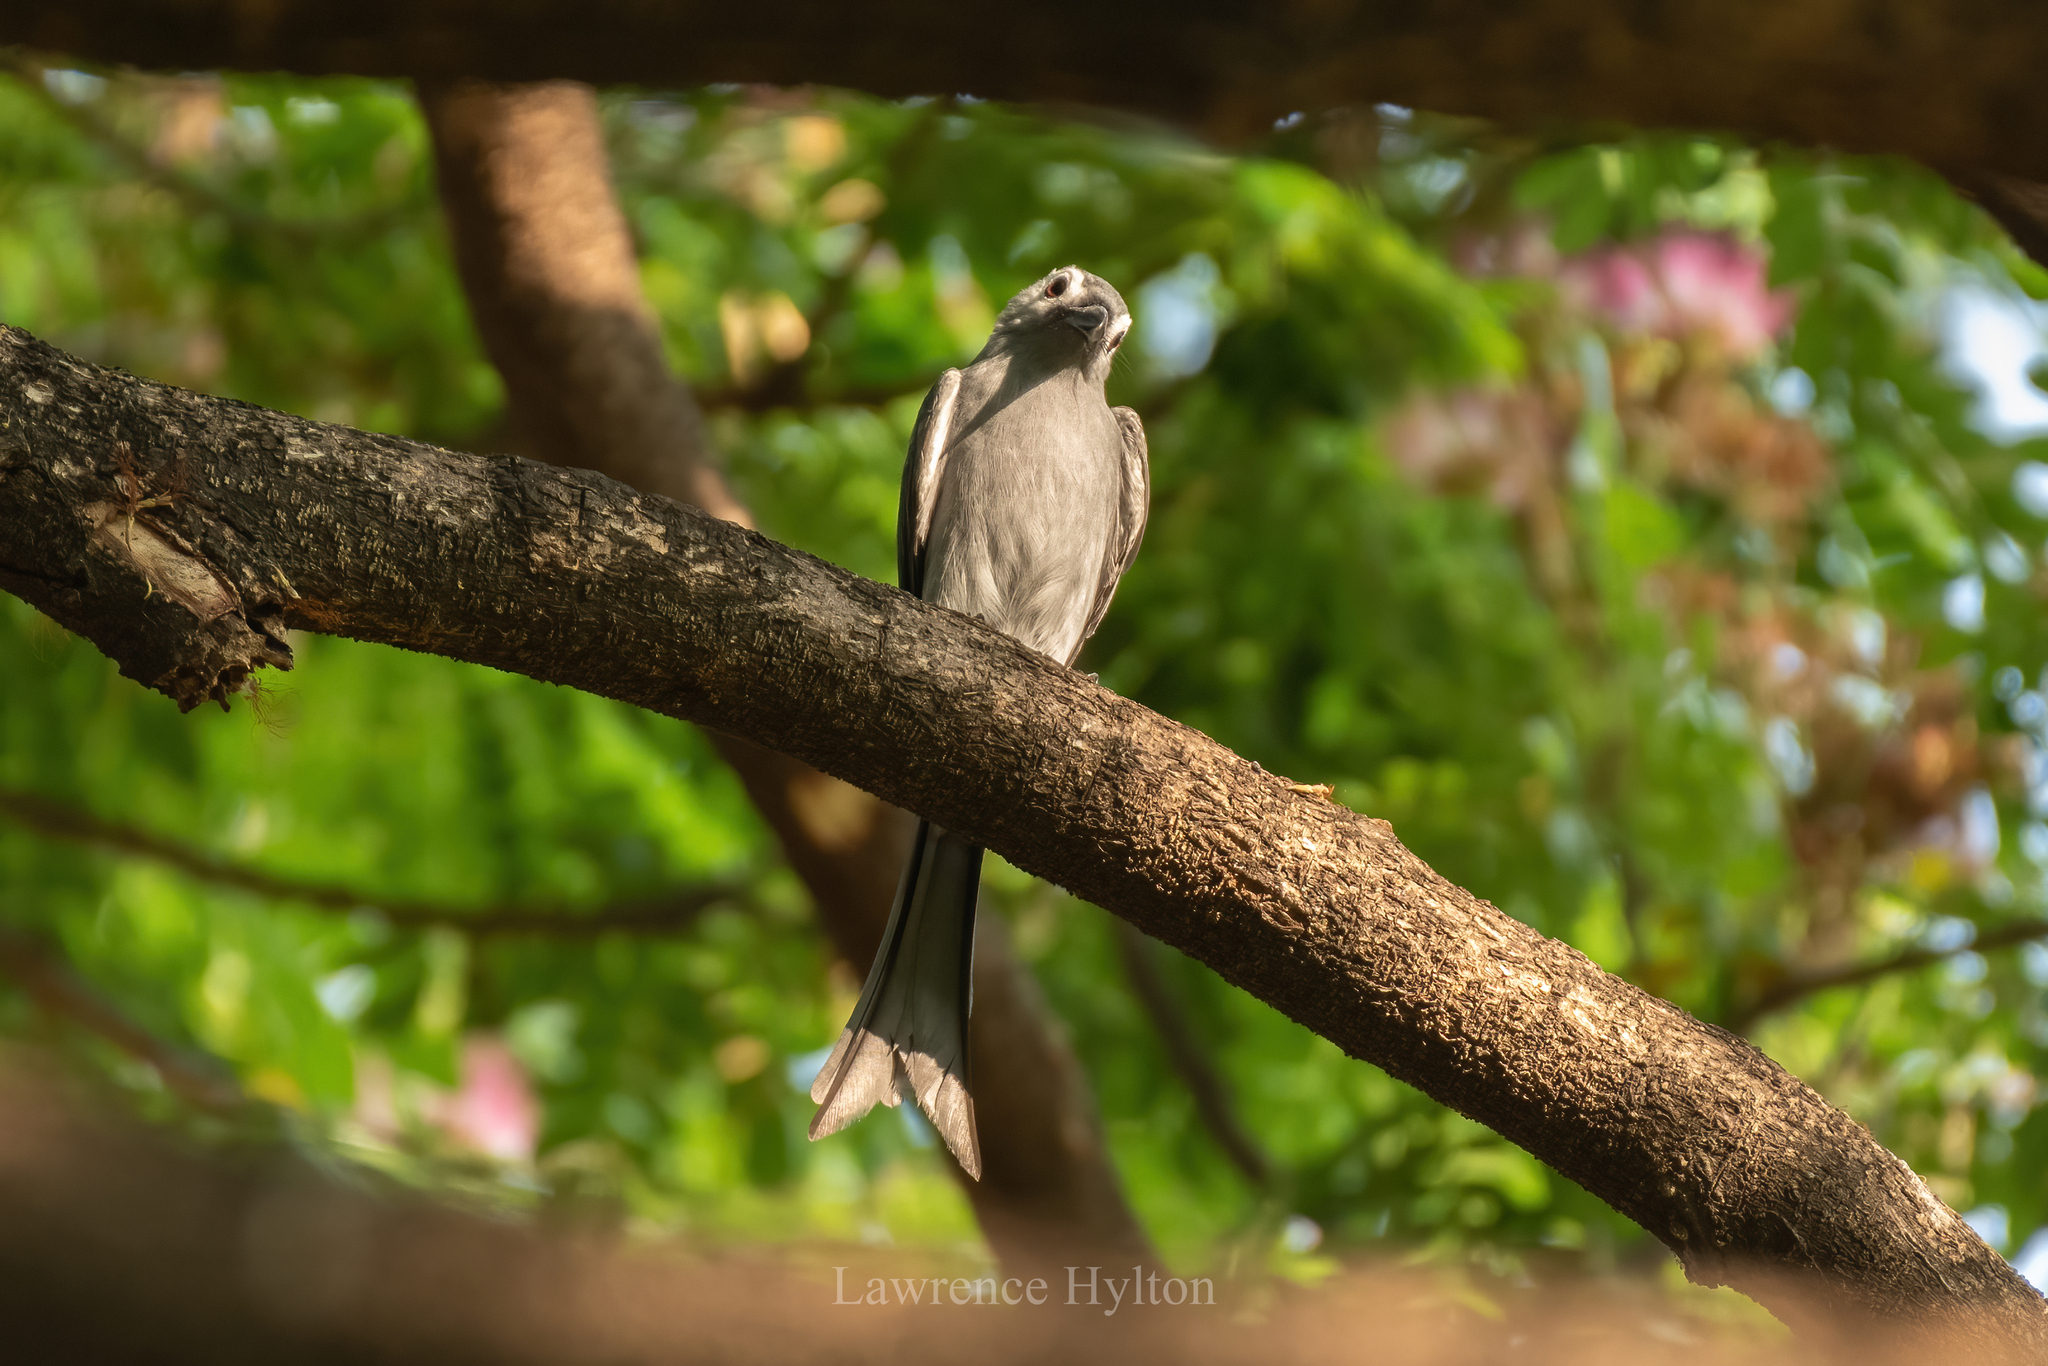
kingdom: Animalia
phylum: Chordata
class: Aves
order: Passeriformes
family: Dicruridae
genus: Dicrurus
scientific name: Dicrurus leucophaeus
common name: Ashy drongo
